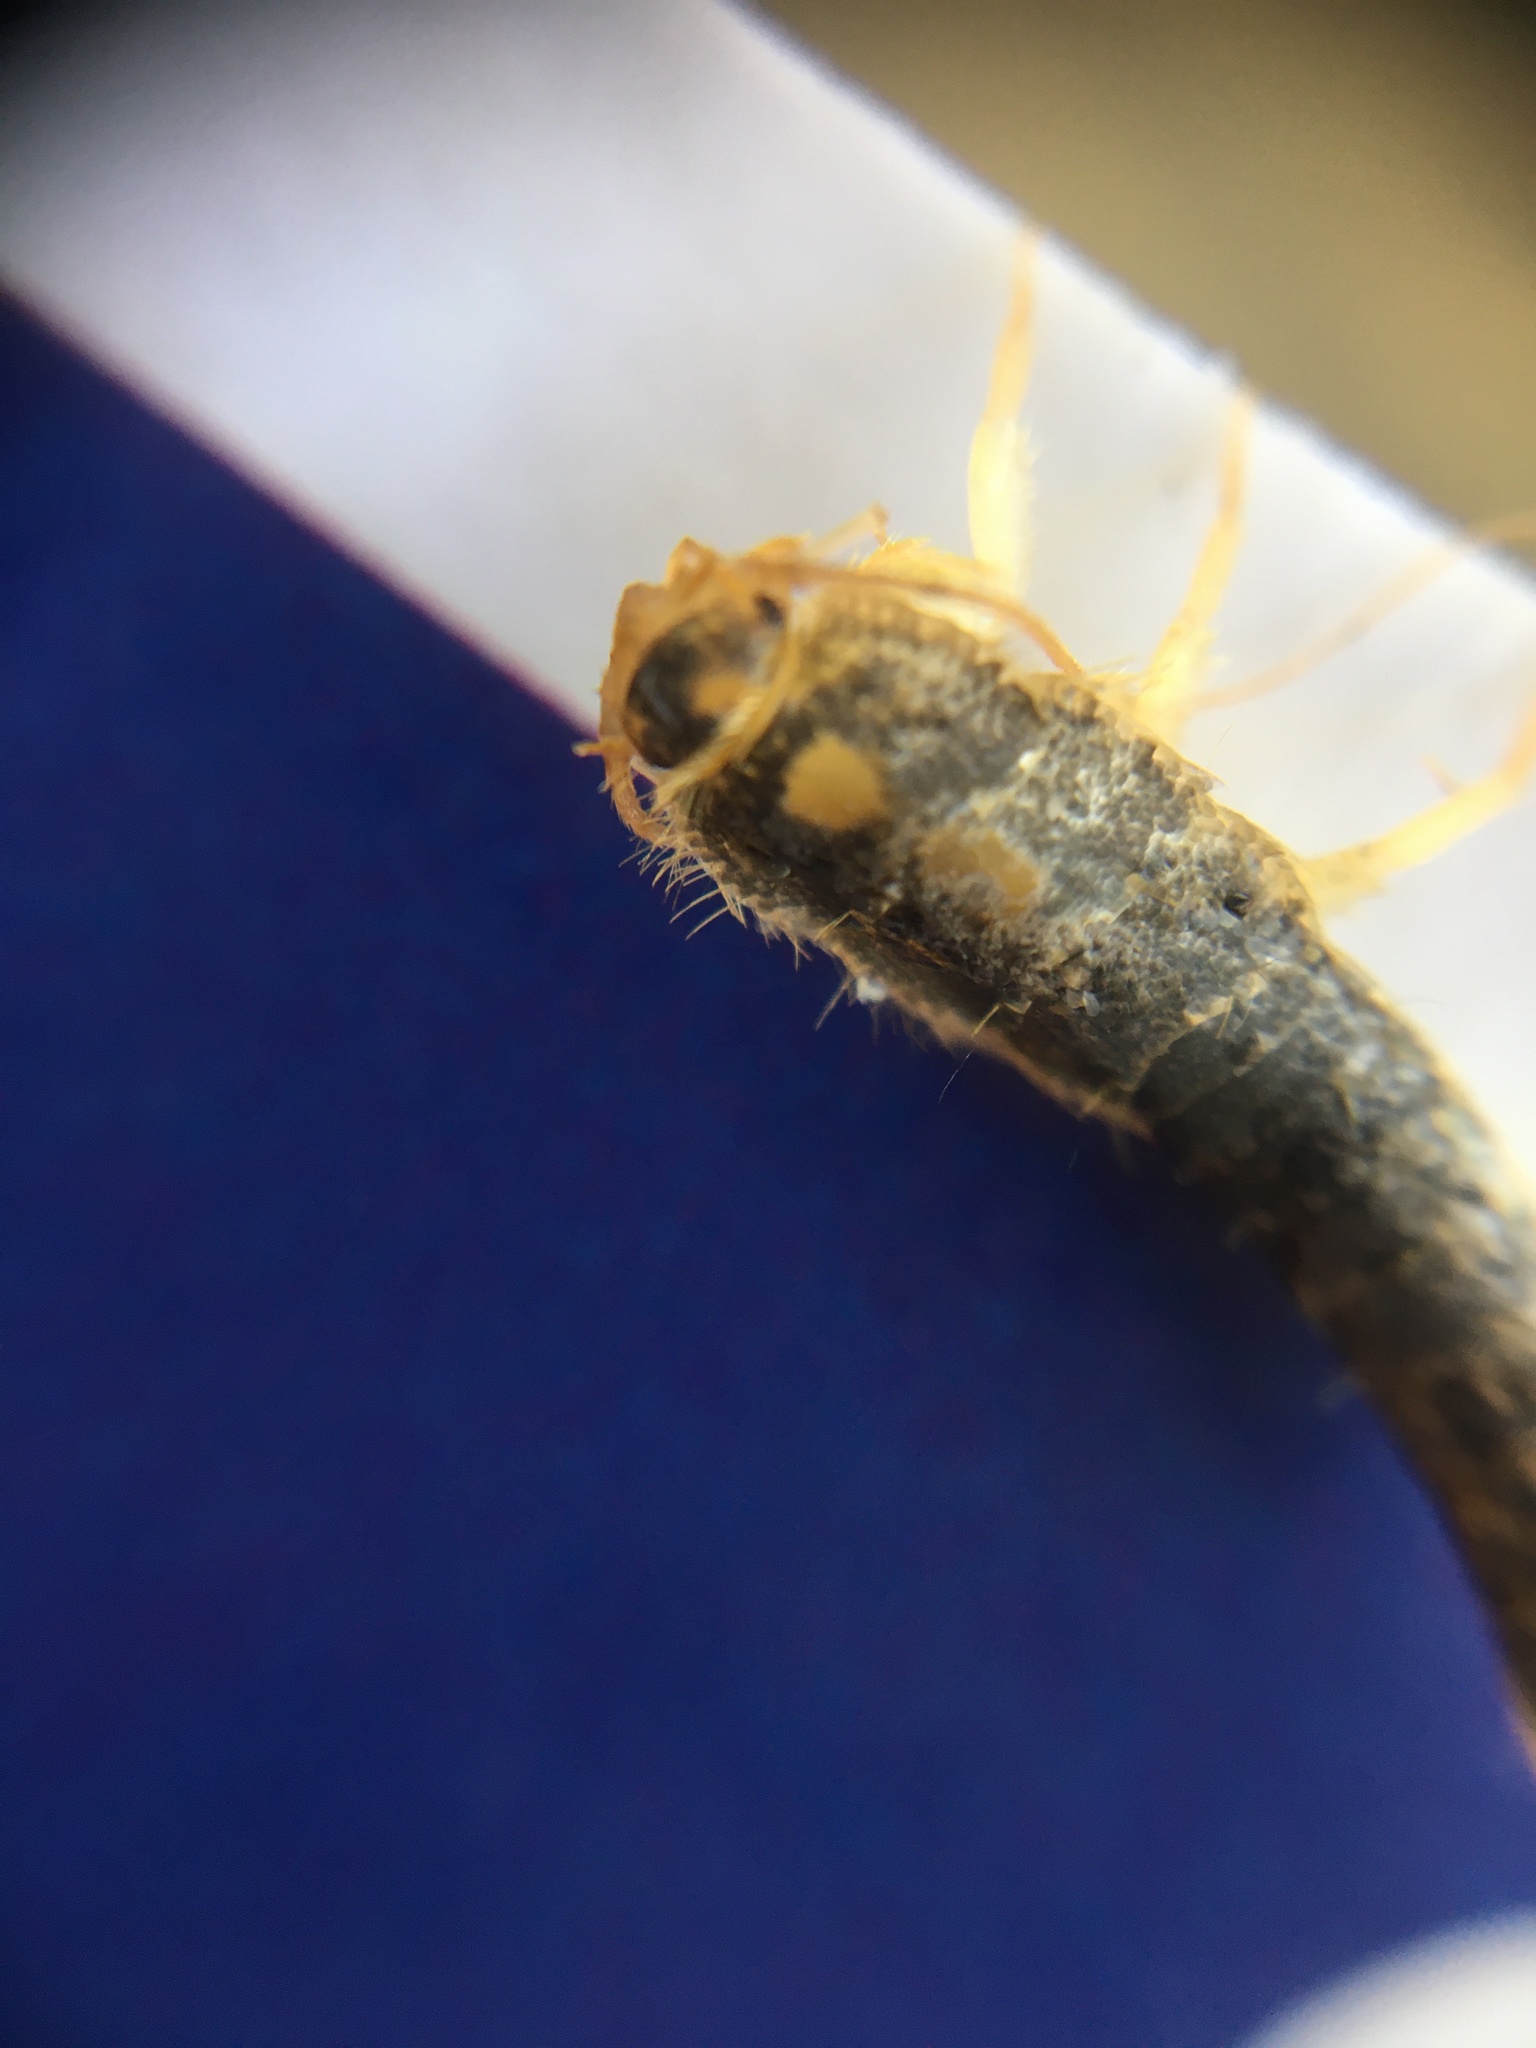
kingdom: Animalia
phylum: Arthropoda
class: Insecta
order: Zygentoma
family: Lepismatidae
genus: Ctenolepisma
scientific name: Ctenolepisma longicaudatum
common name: Silverfish
